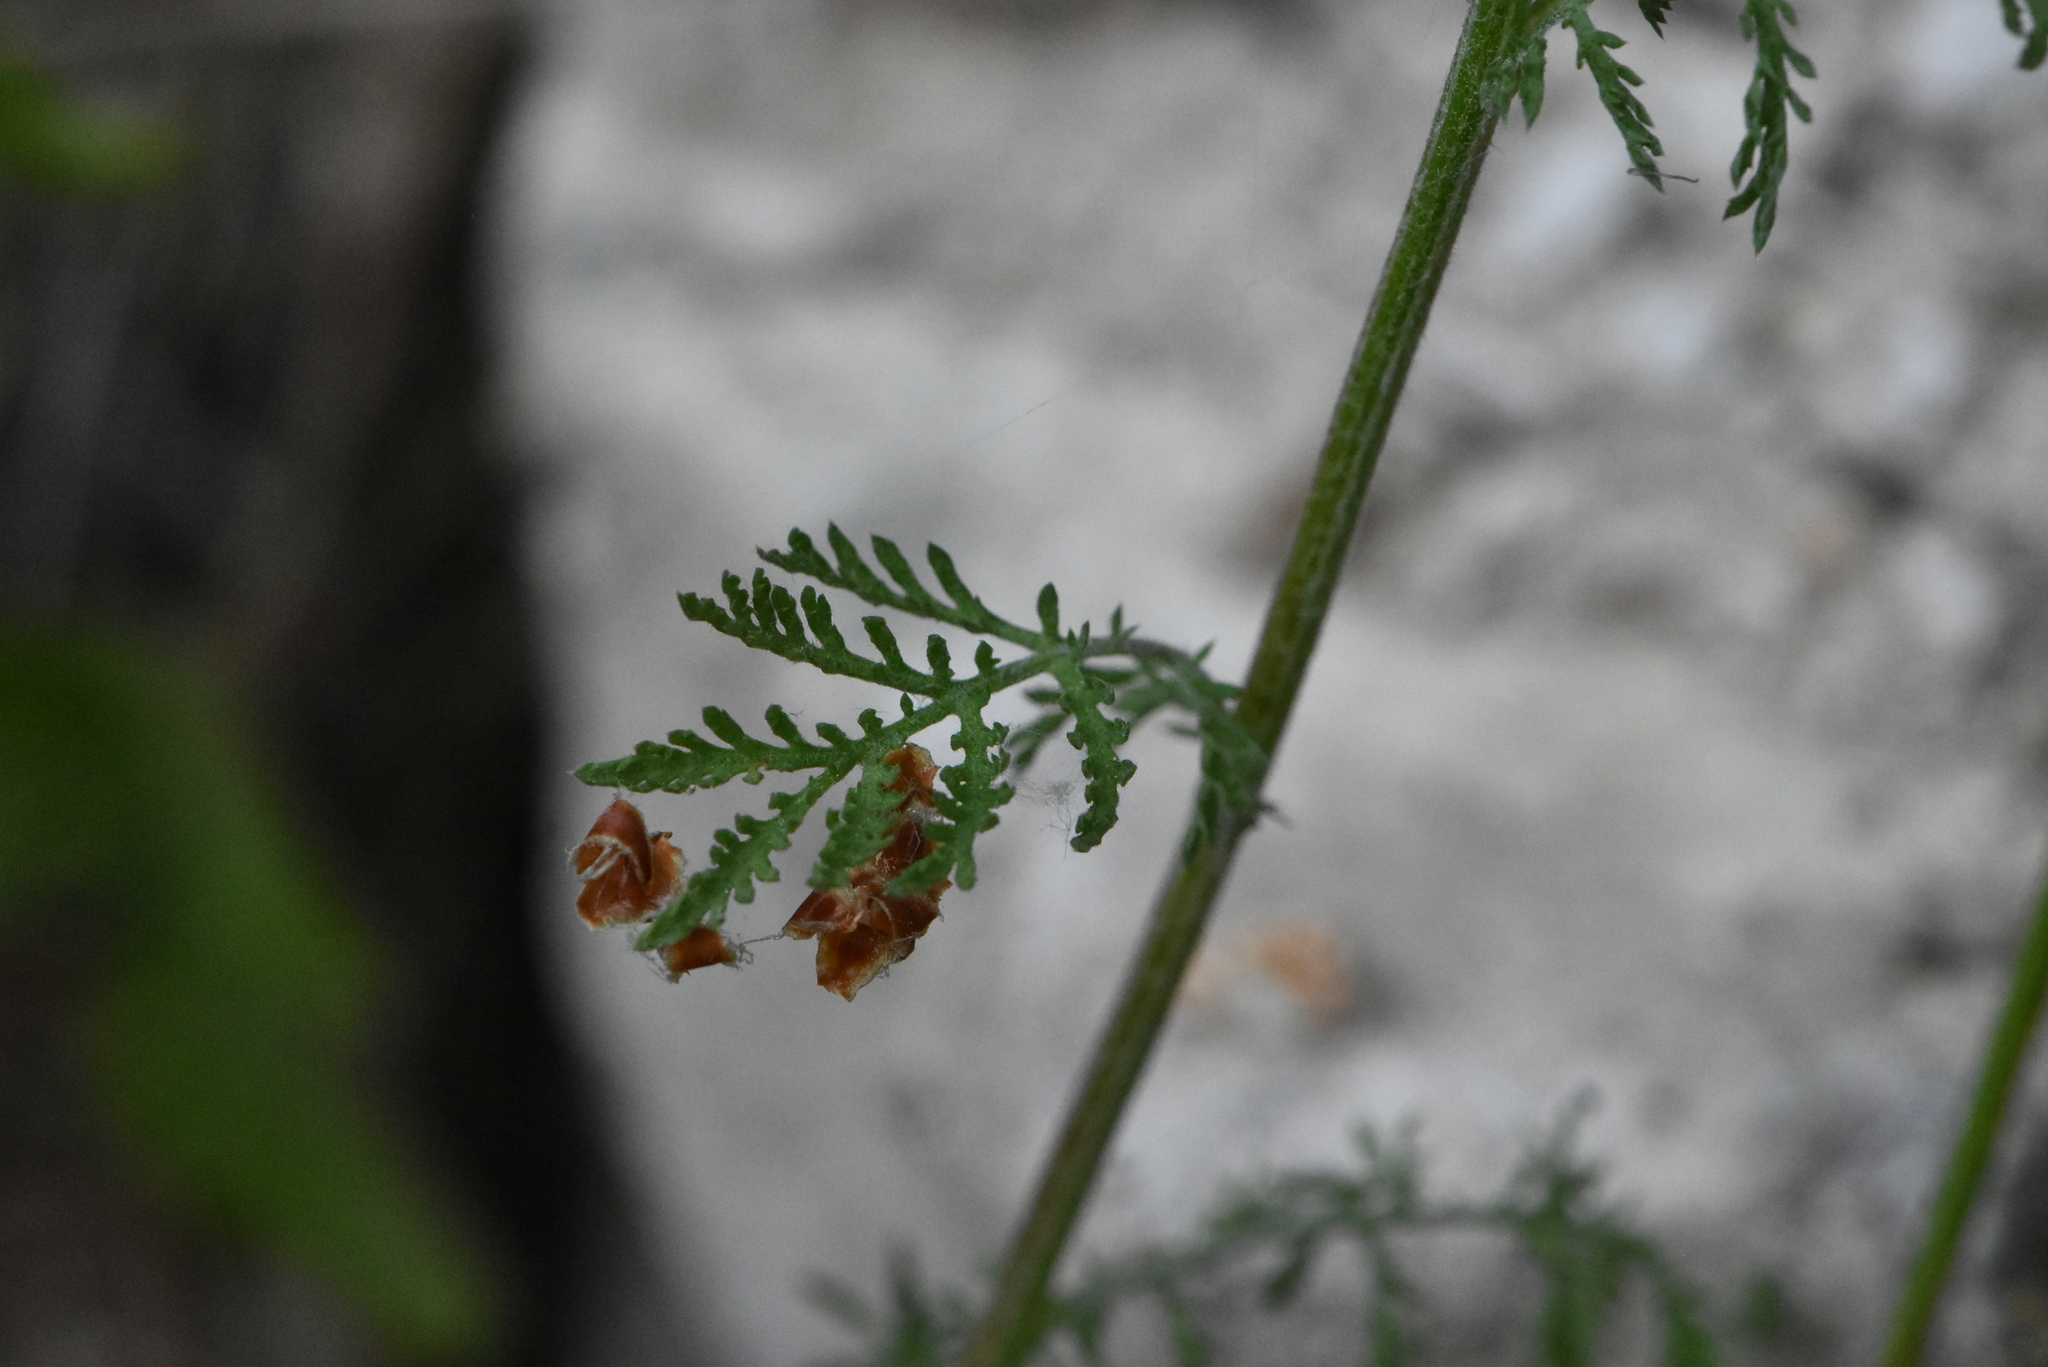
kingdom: Plantae
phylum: Tracheophyta
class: Magnoliopsida
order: Asterales
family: Asteraceae
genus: Cota
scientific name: Cota tinctoria
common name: Golden chamomile
